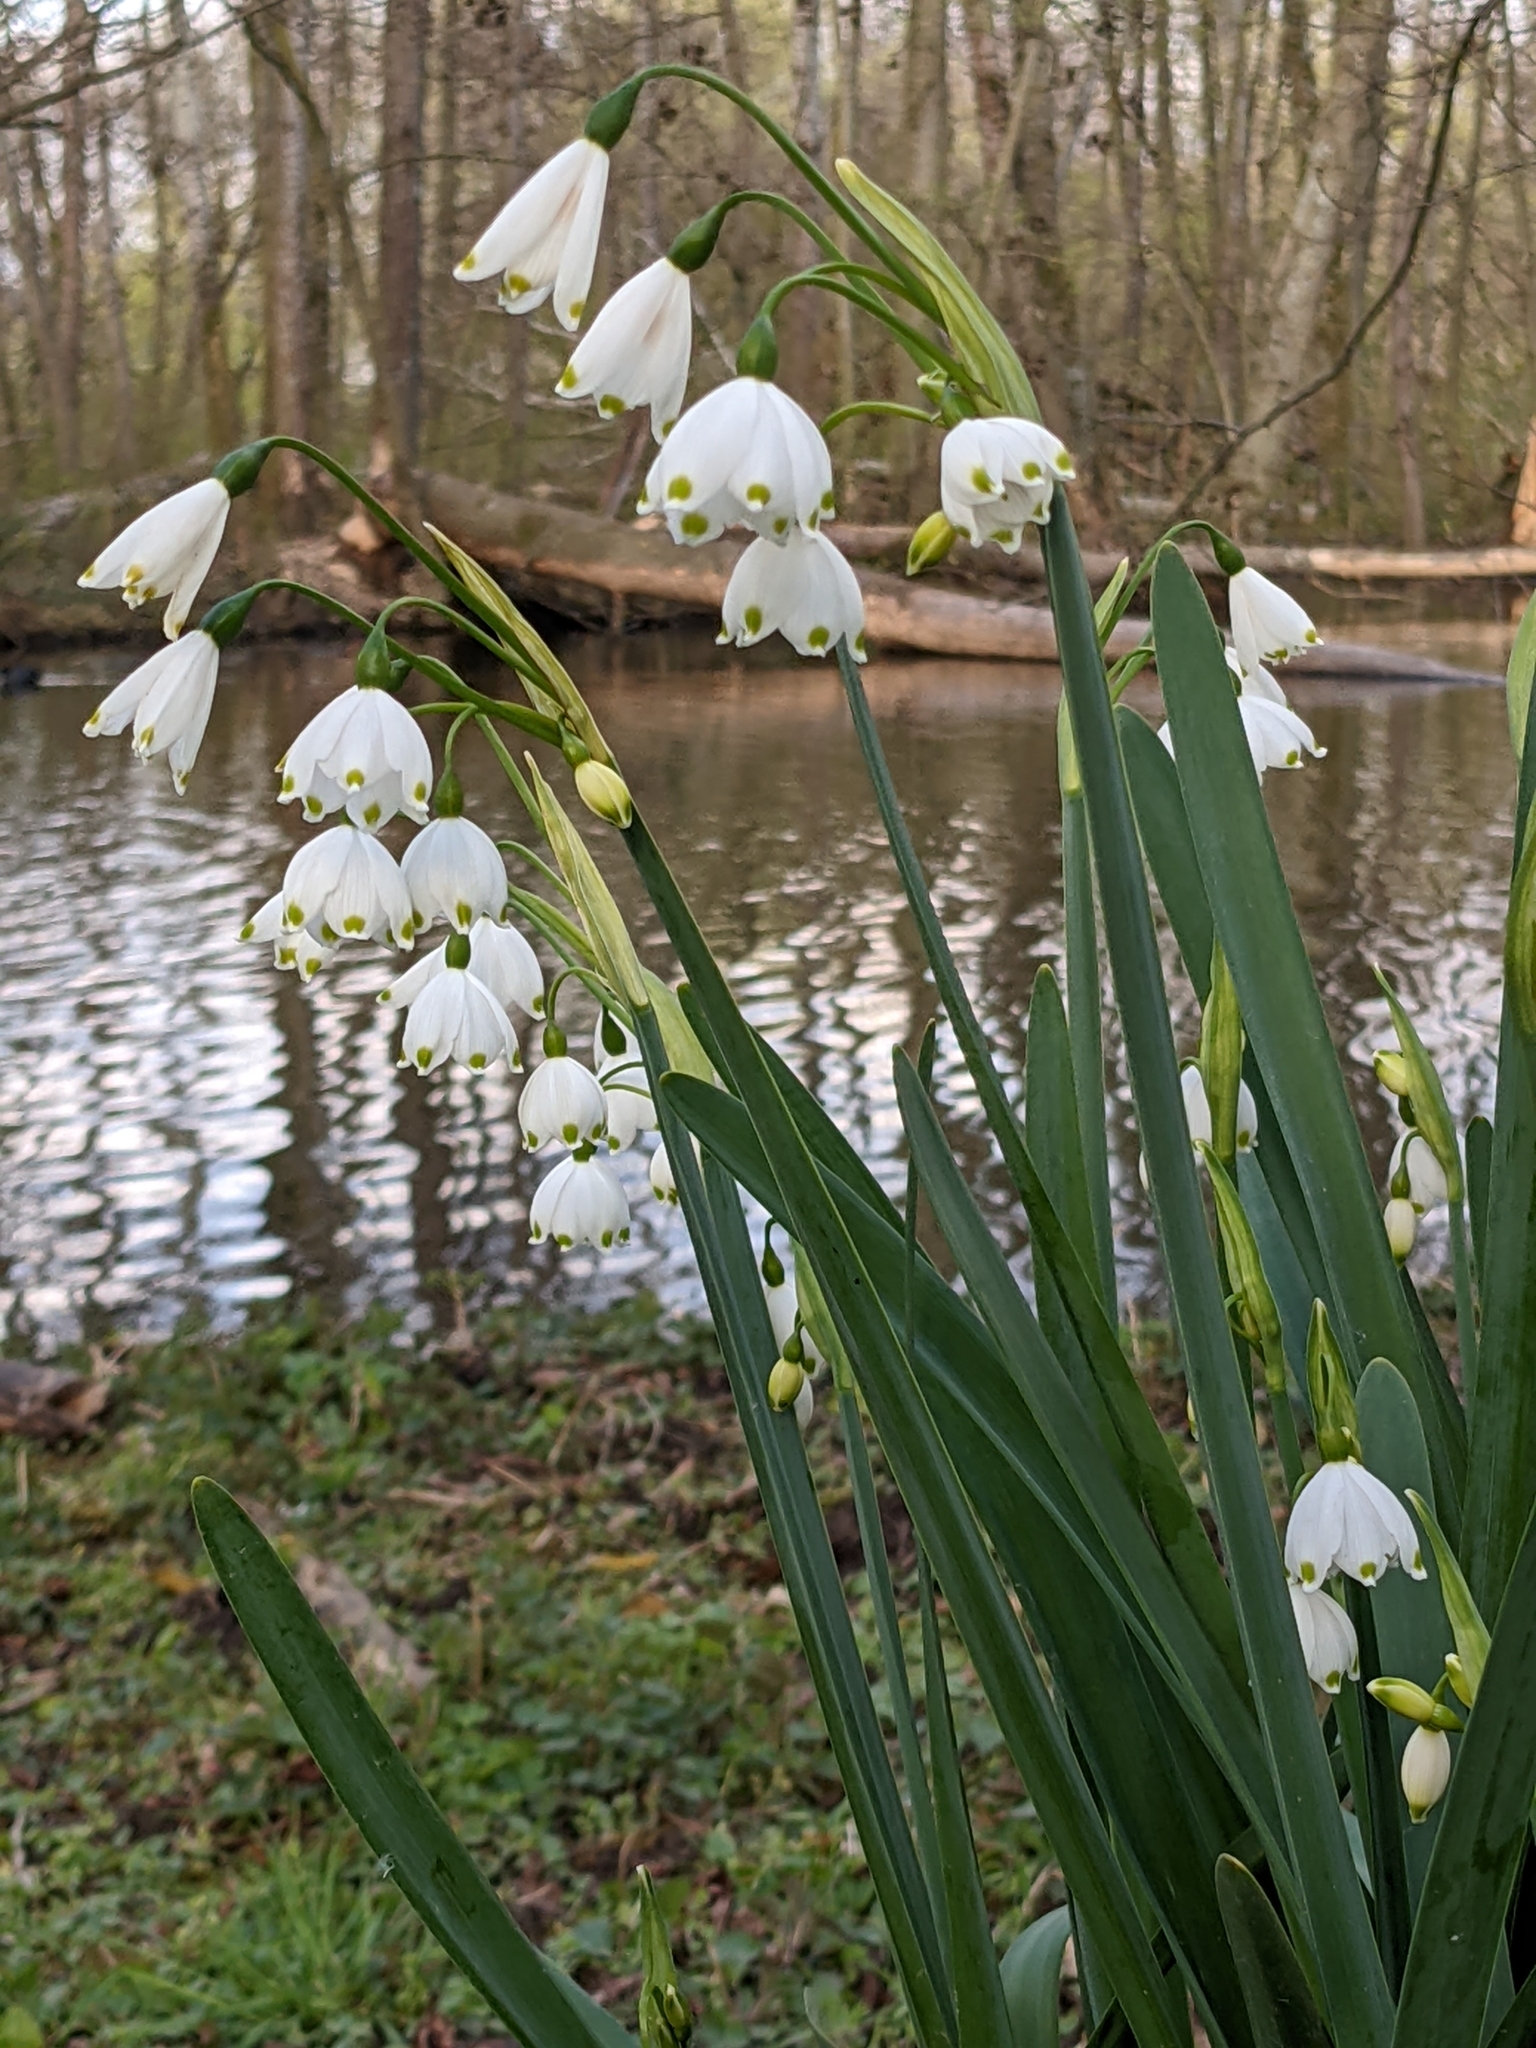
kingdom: Plantae
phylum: Tracheophyta
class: Liliopsida
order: Asparagales
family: Amaryllidaceae
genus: Leucojum
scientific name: Leucojum aestivum
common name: Summer snowflake
